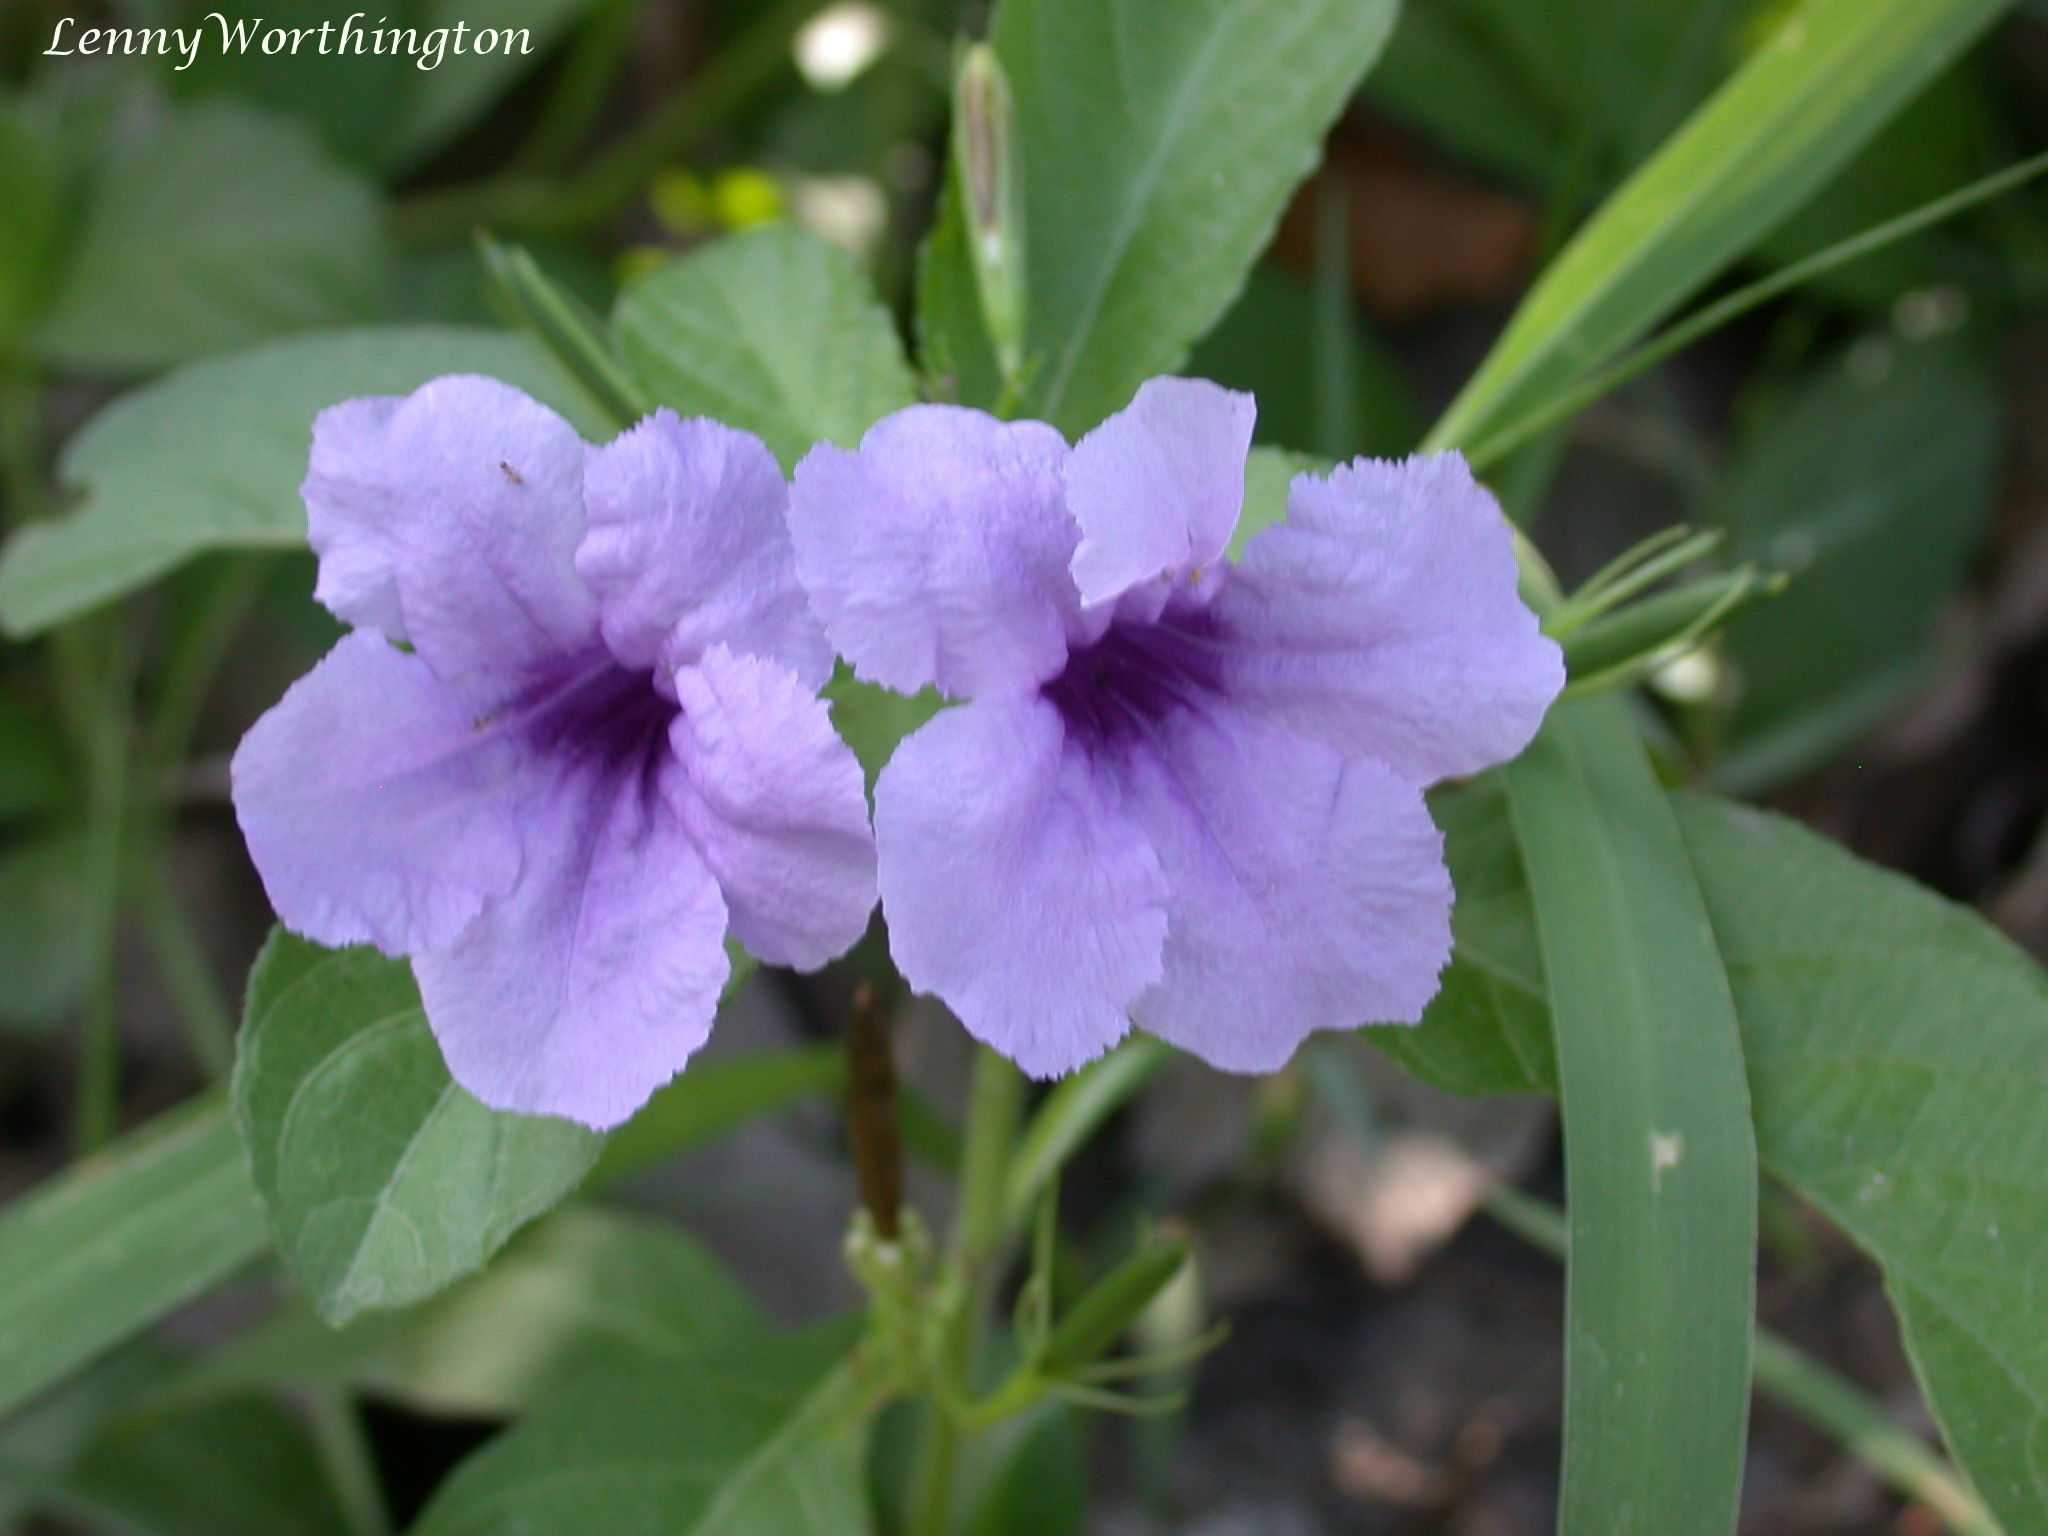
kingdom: Plantae
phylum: Tracheophyta
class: Magnoliopsida
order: Lamiales
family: Acanthaceae
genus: Ruellia
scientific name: Ruellia tuberosa
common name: Devil's bit
